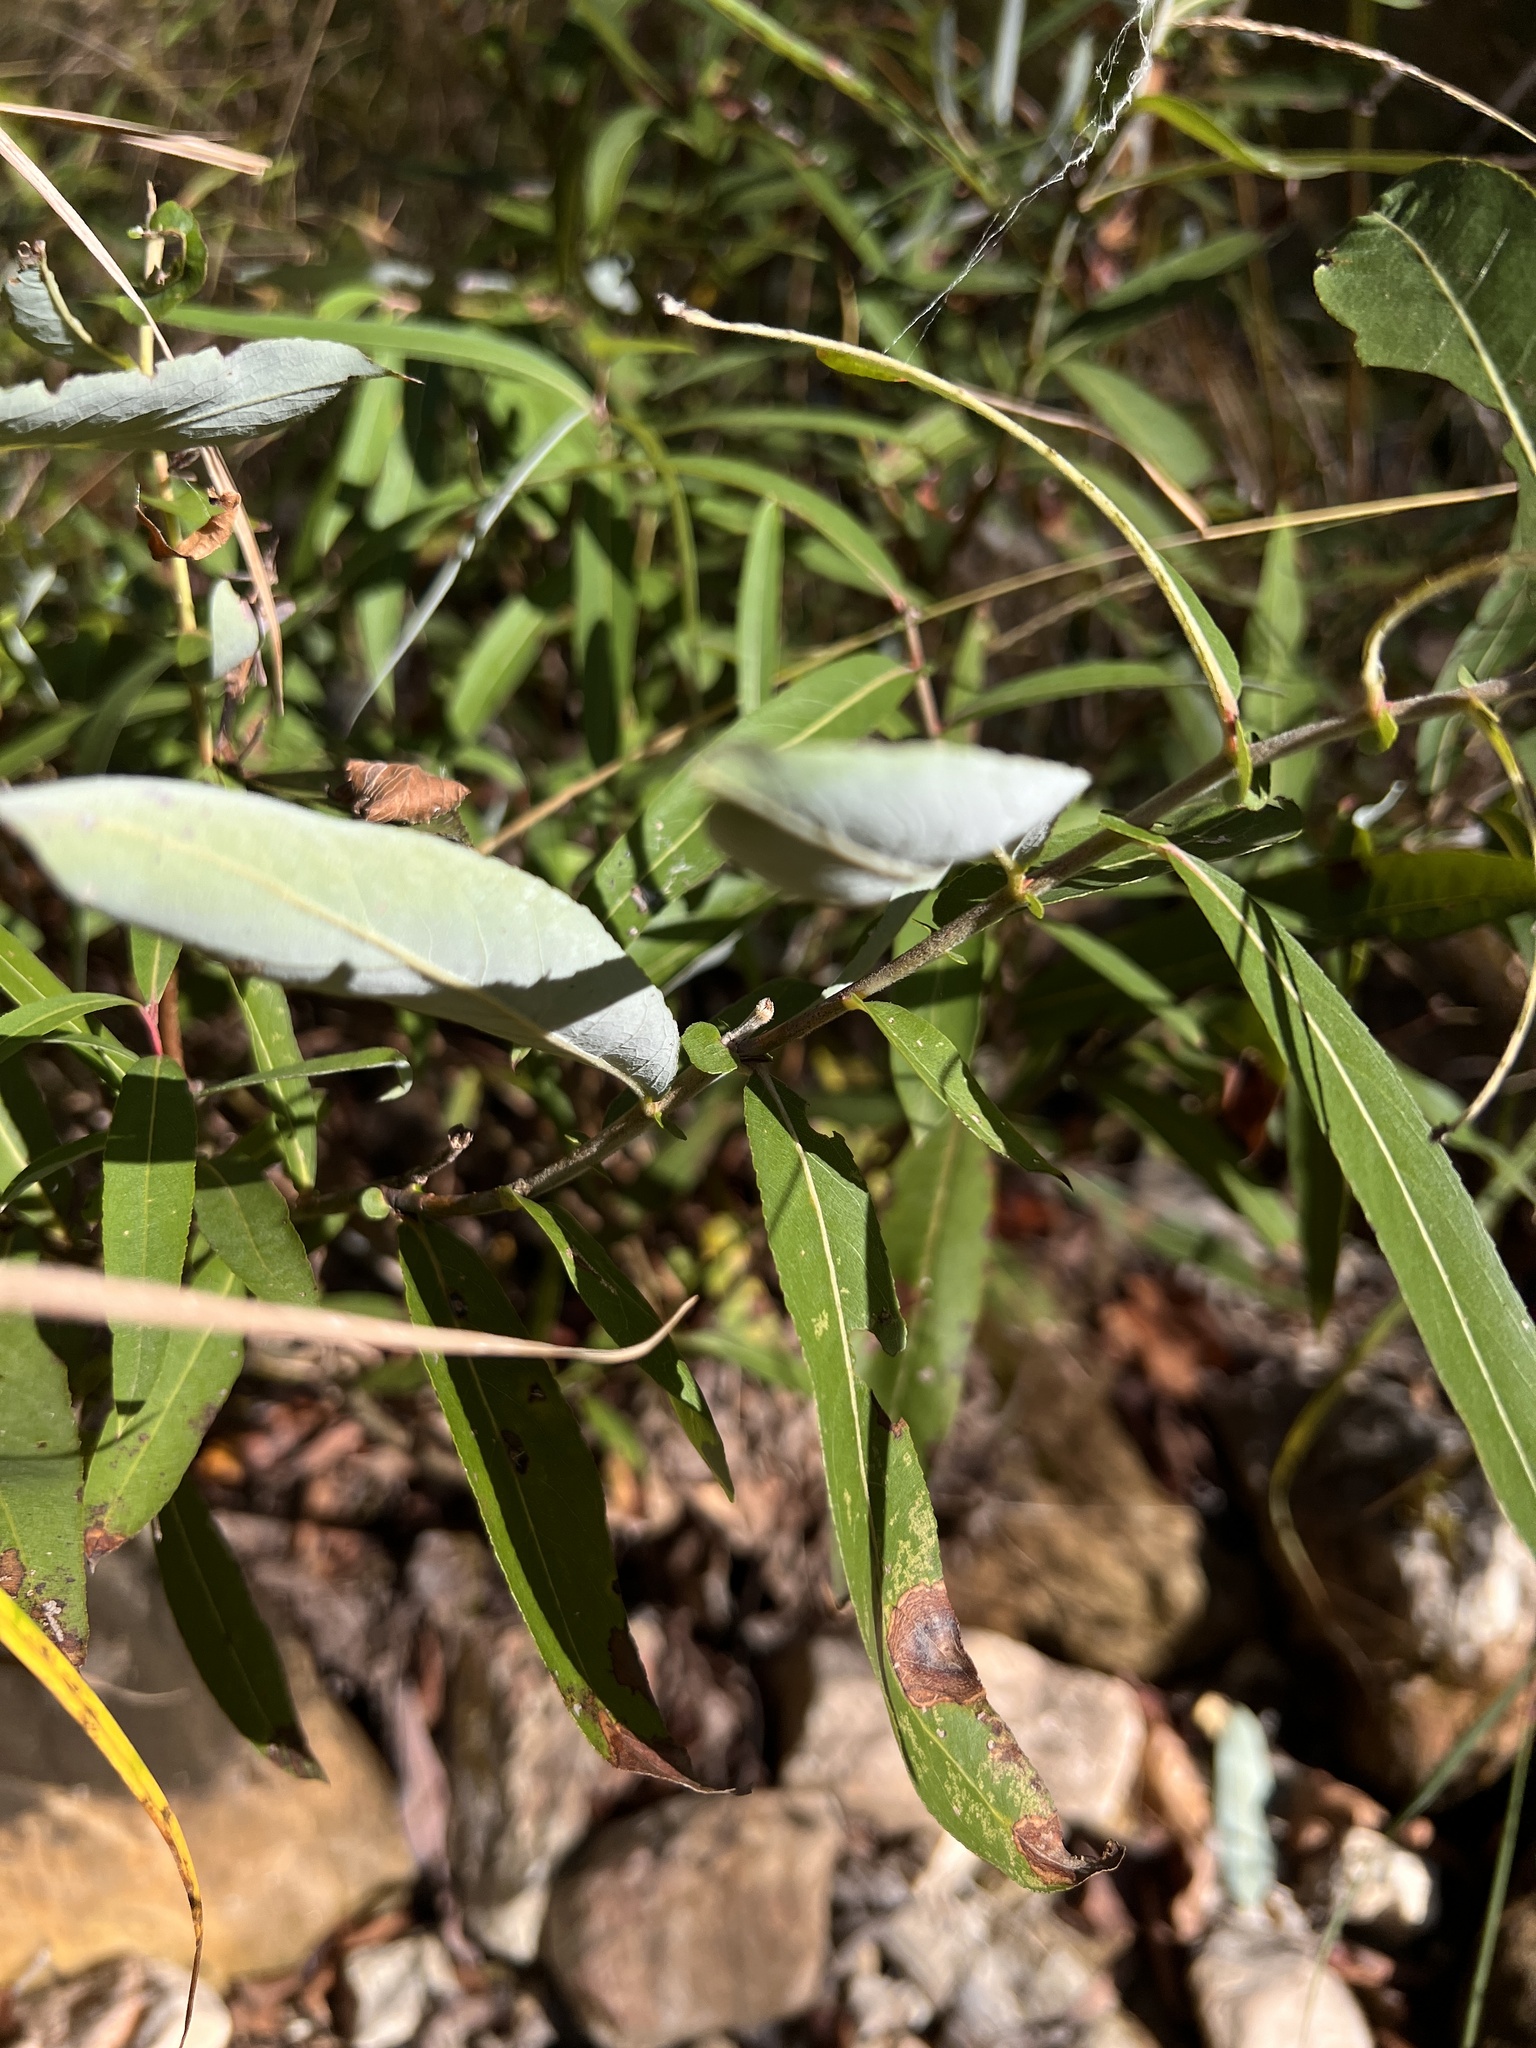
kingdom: Plantae
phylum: Tracheophyta
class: Magnoliopsida
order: Malpighiales
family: Salicaceae
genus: Salix
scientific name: Salix caroliniana
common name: Carolina willow
